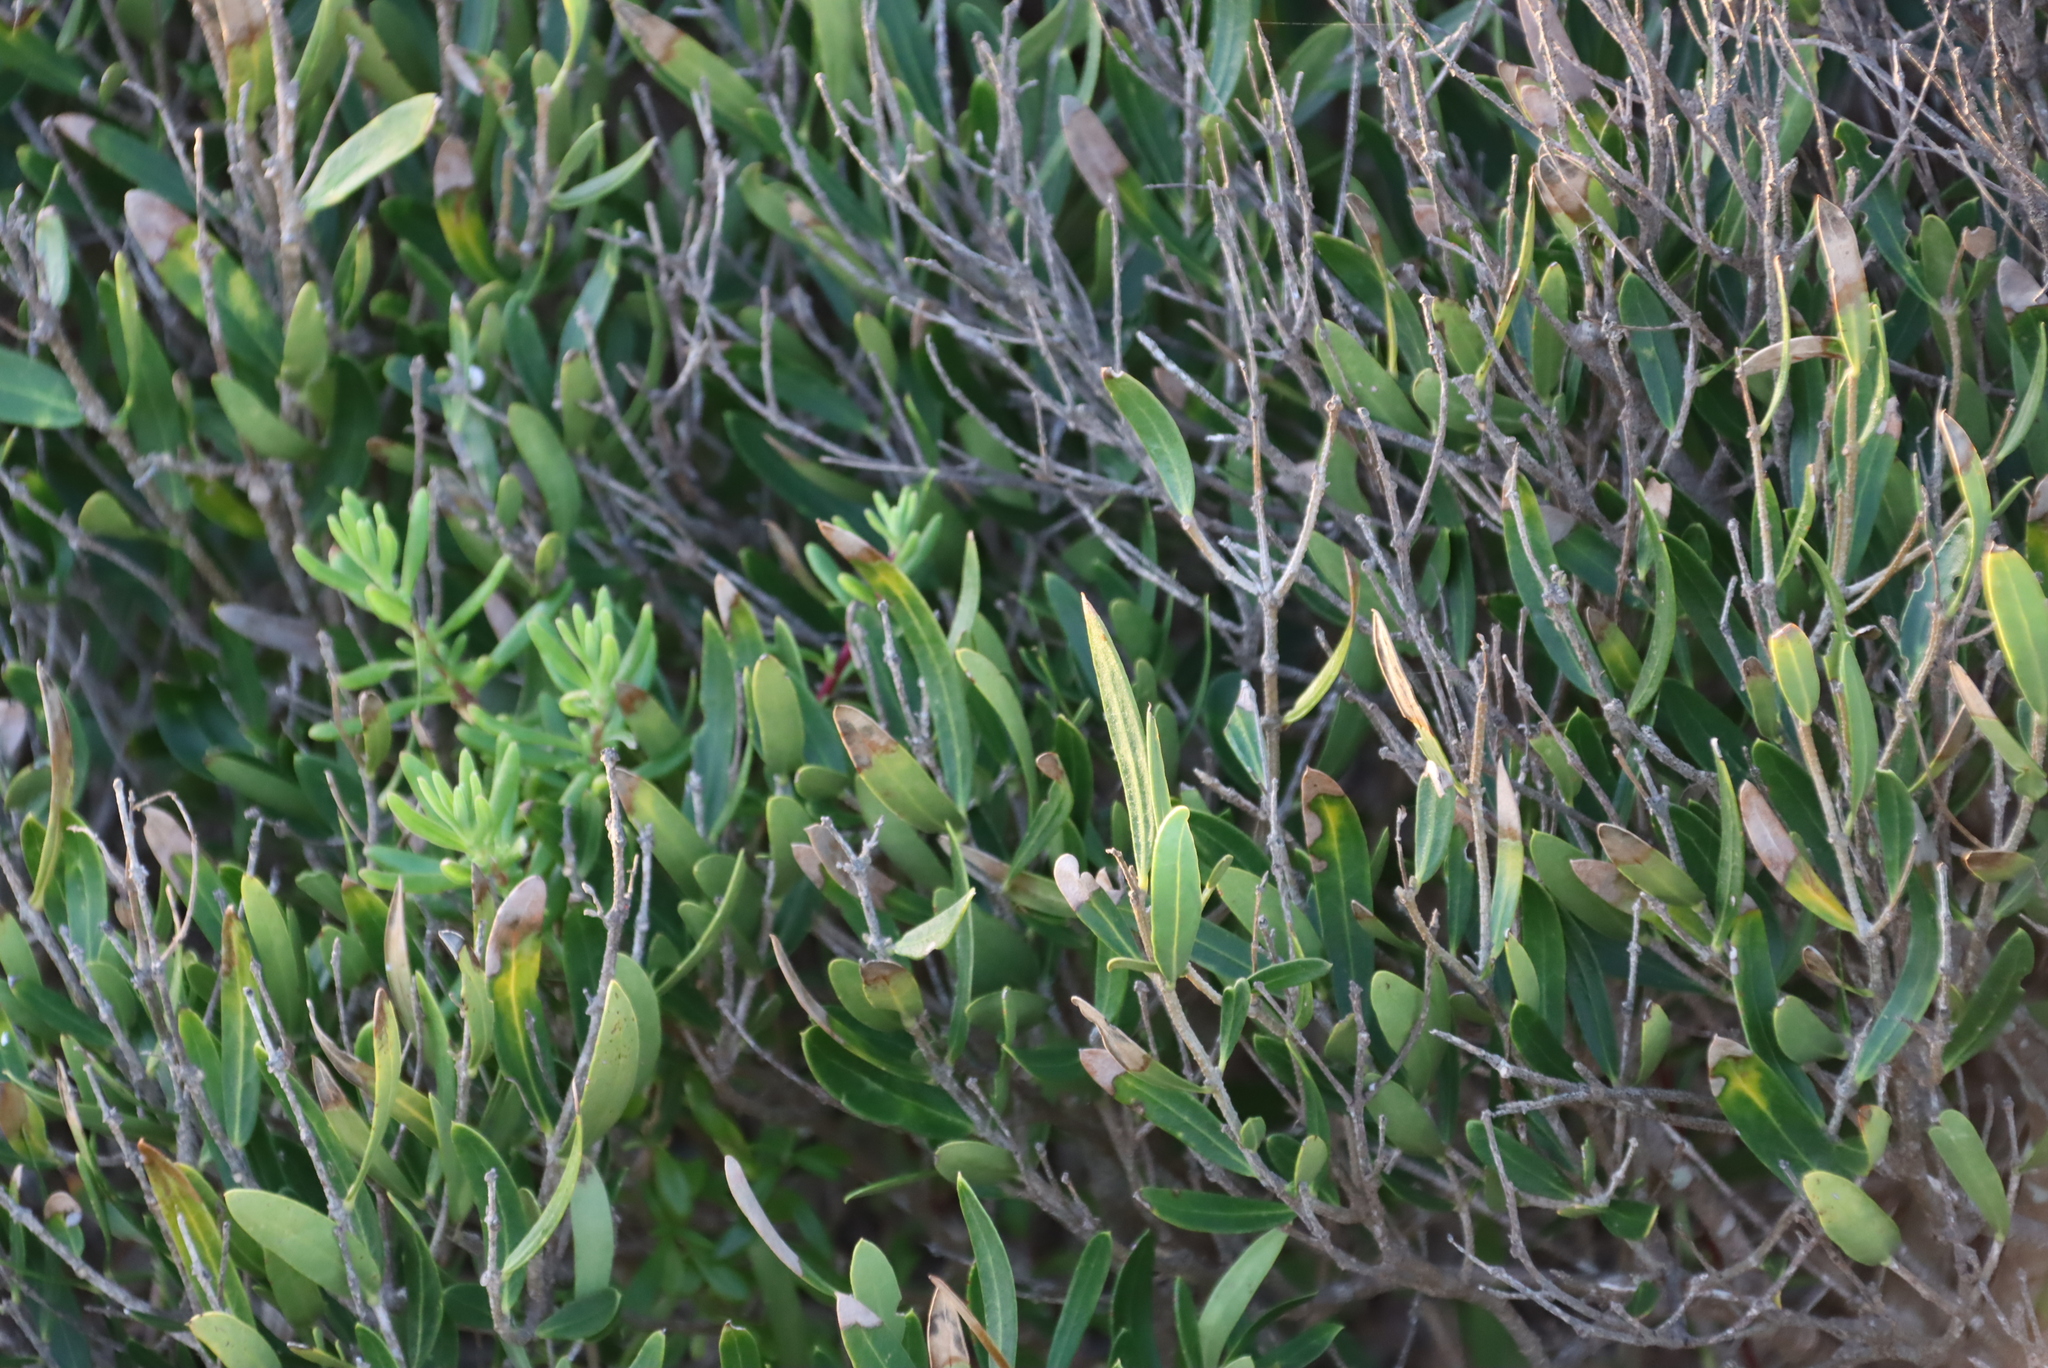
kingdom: Plantae
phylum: Tracheophyta
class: Magnoliopsida
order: Lamiales
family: Oleaceae
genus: Olea
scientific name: Olea exasperata
